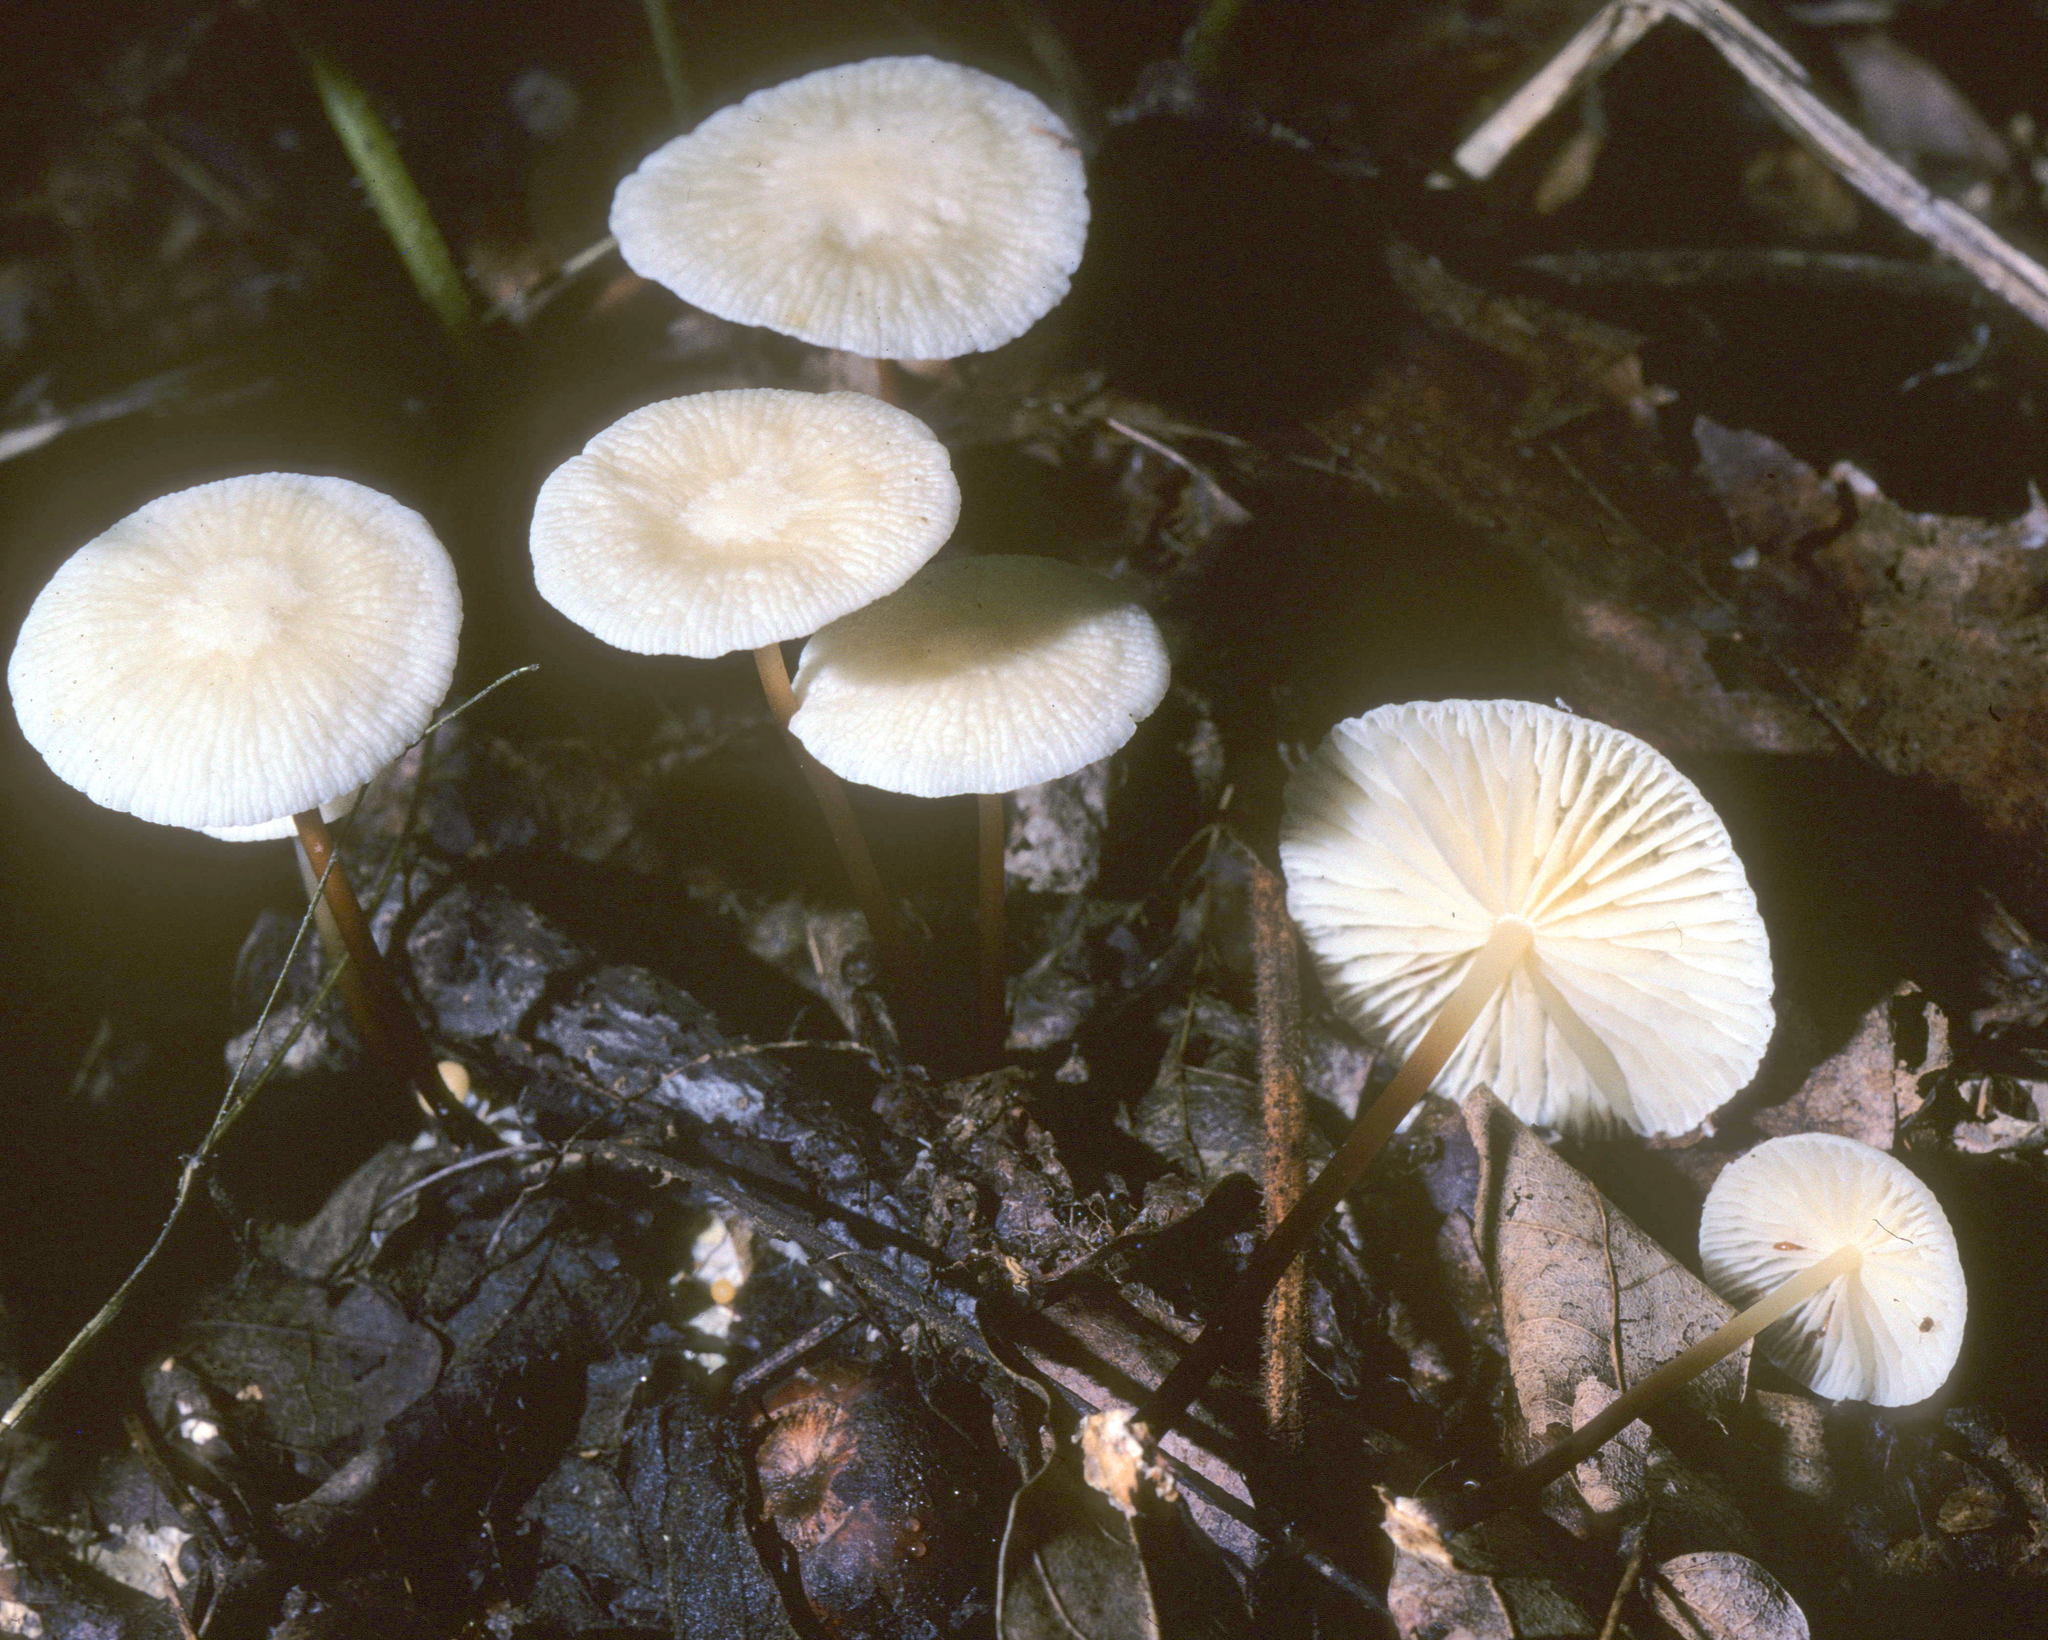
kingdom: Fungi
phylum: Basidiomycota
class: Agaricomycetes
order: Agaricales
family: Marasmiaceae
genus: Marasmius
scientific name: Marasmius delectans
